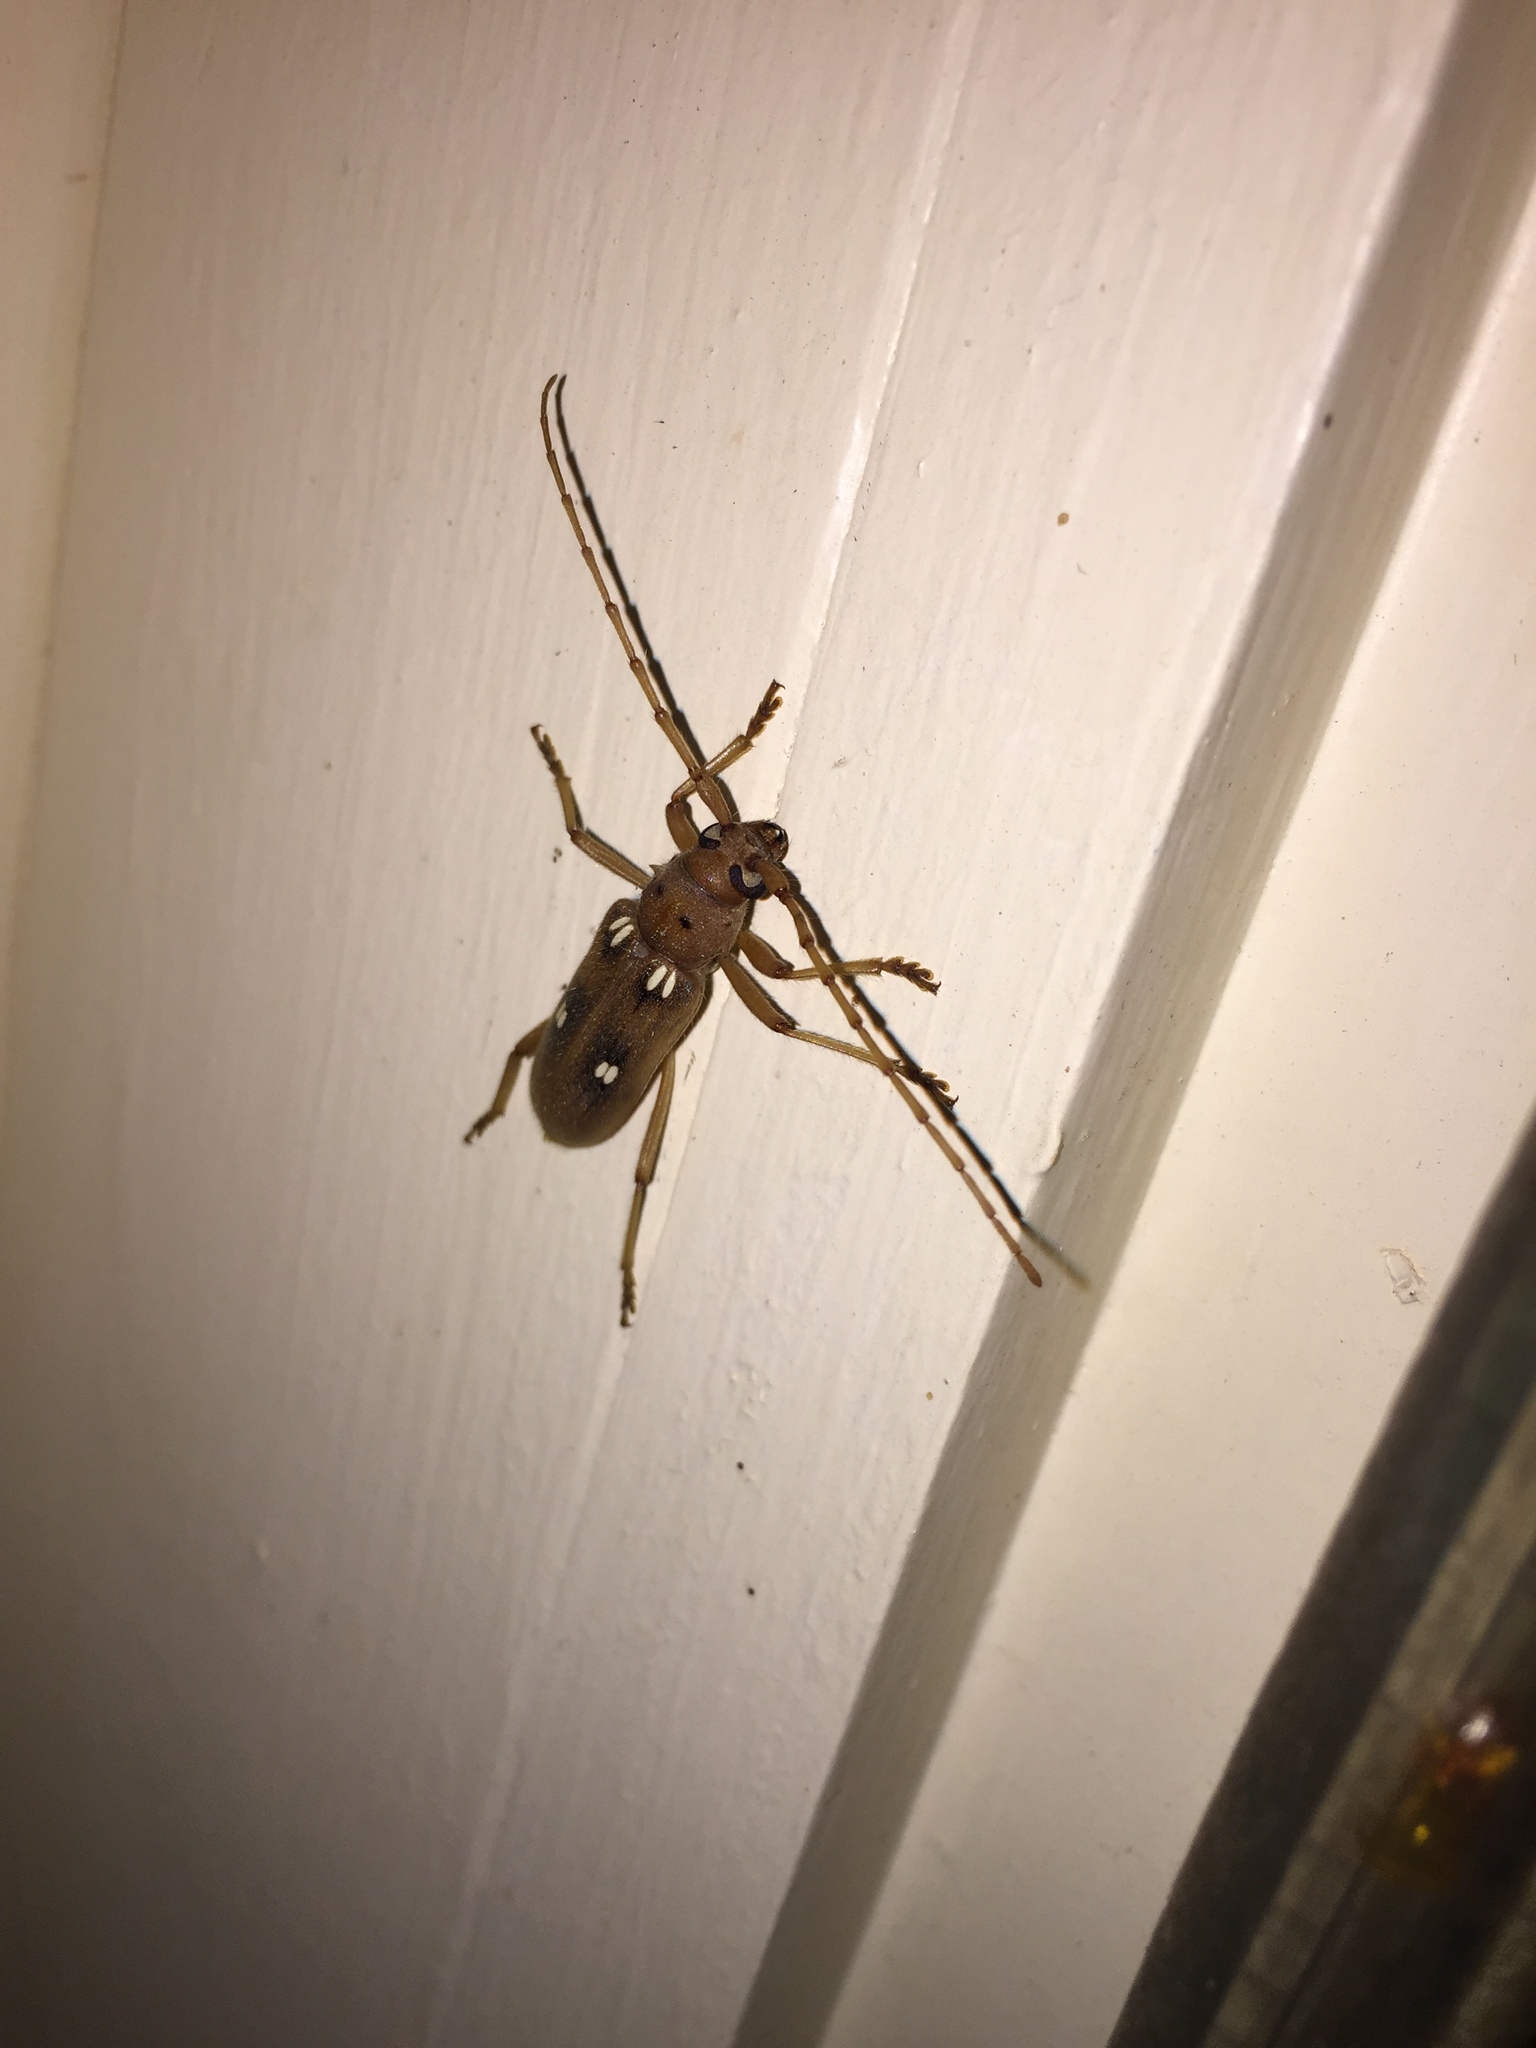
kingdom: Animalia
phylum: Arthropoda
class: Insecta
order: Coleoptera
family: Cerambycidae
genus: Eburia
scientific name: Eburia haldemani
